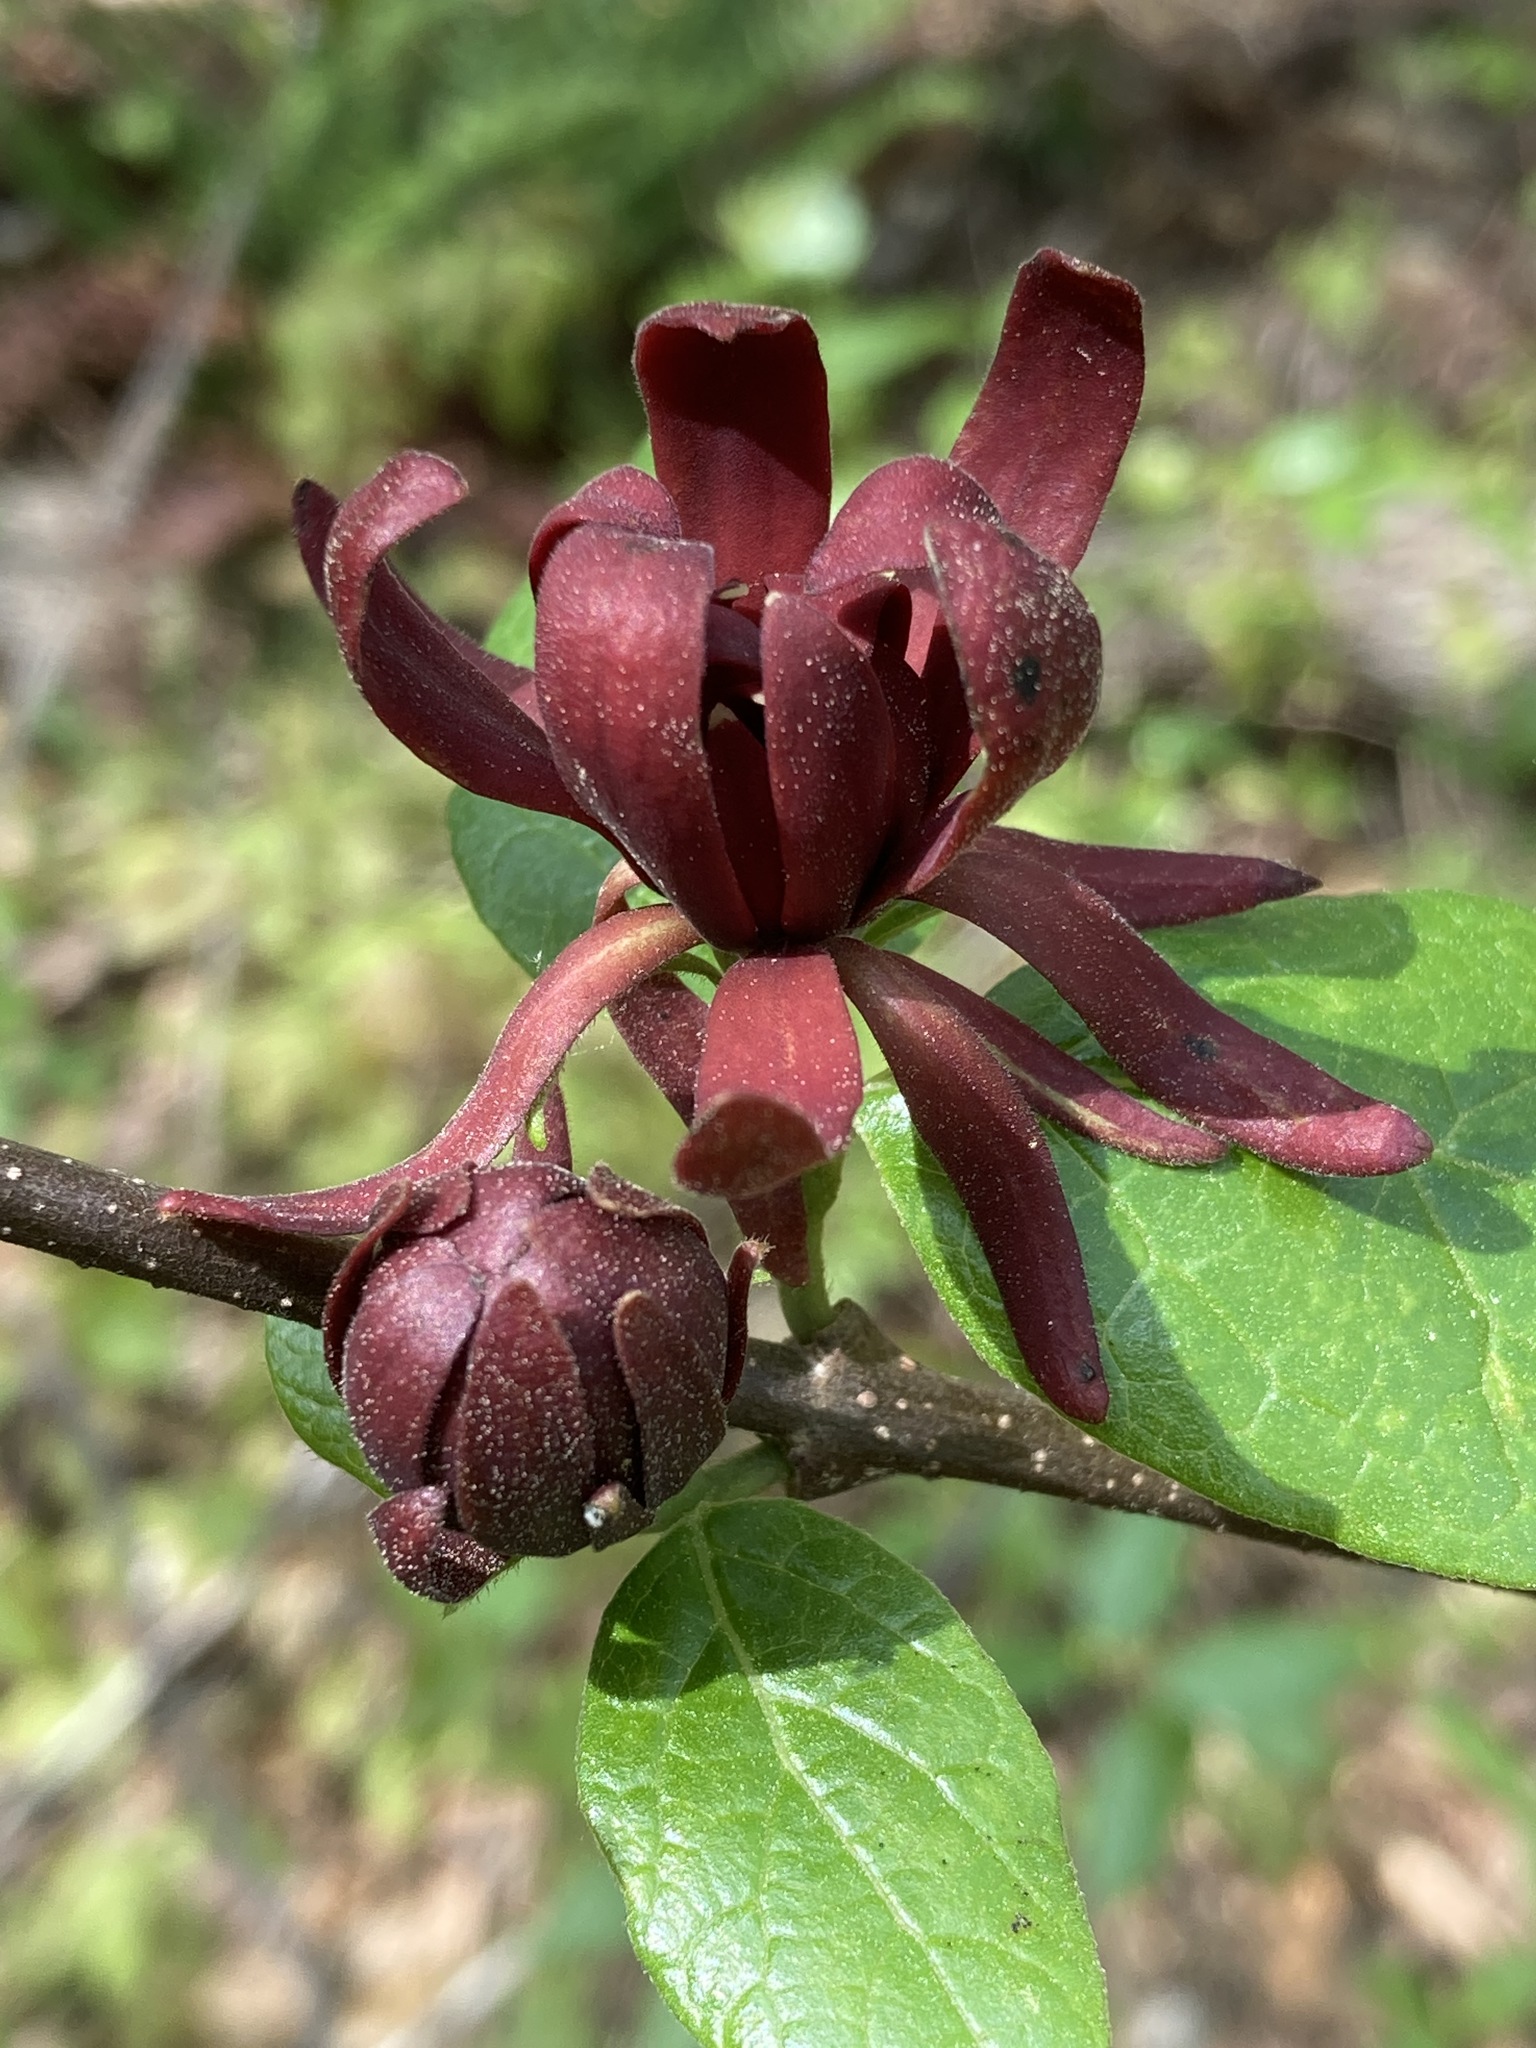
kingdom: Plantae
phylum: Tracheophyta
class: Magnoliopsida
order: Laurales
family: Calycanthaceae
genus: Calycanthus
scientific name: Calycanthus floridus
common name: Carolina-allspice
